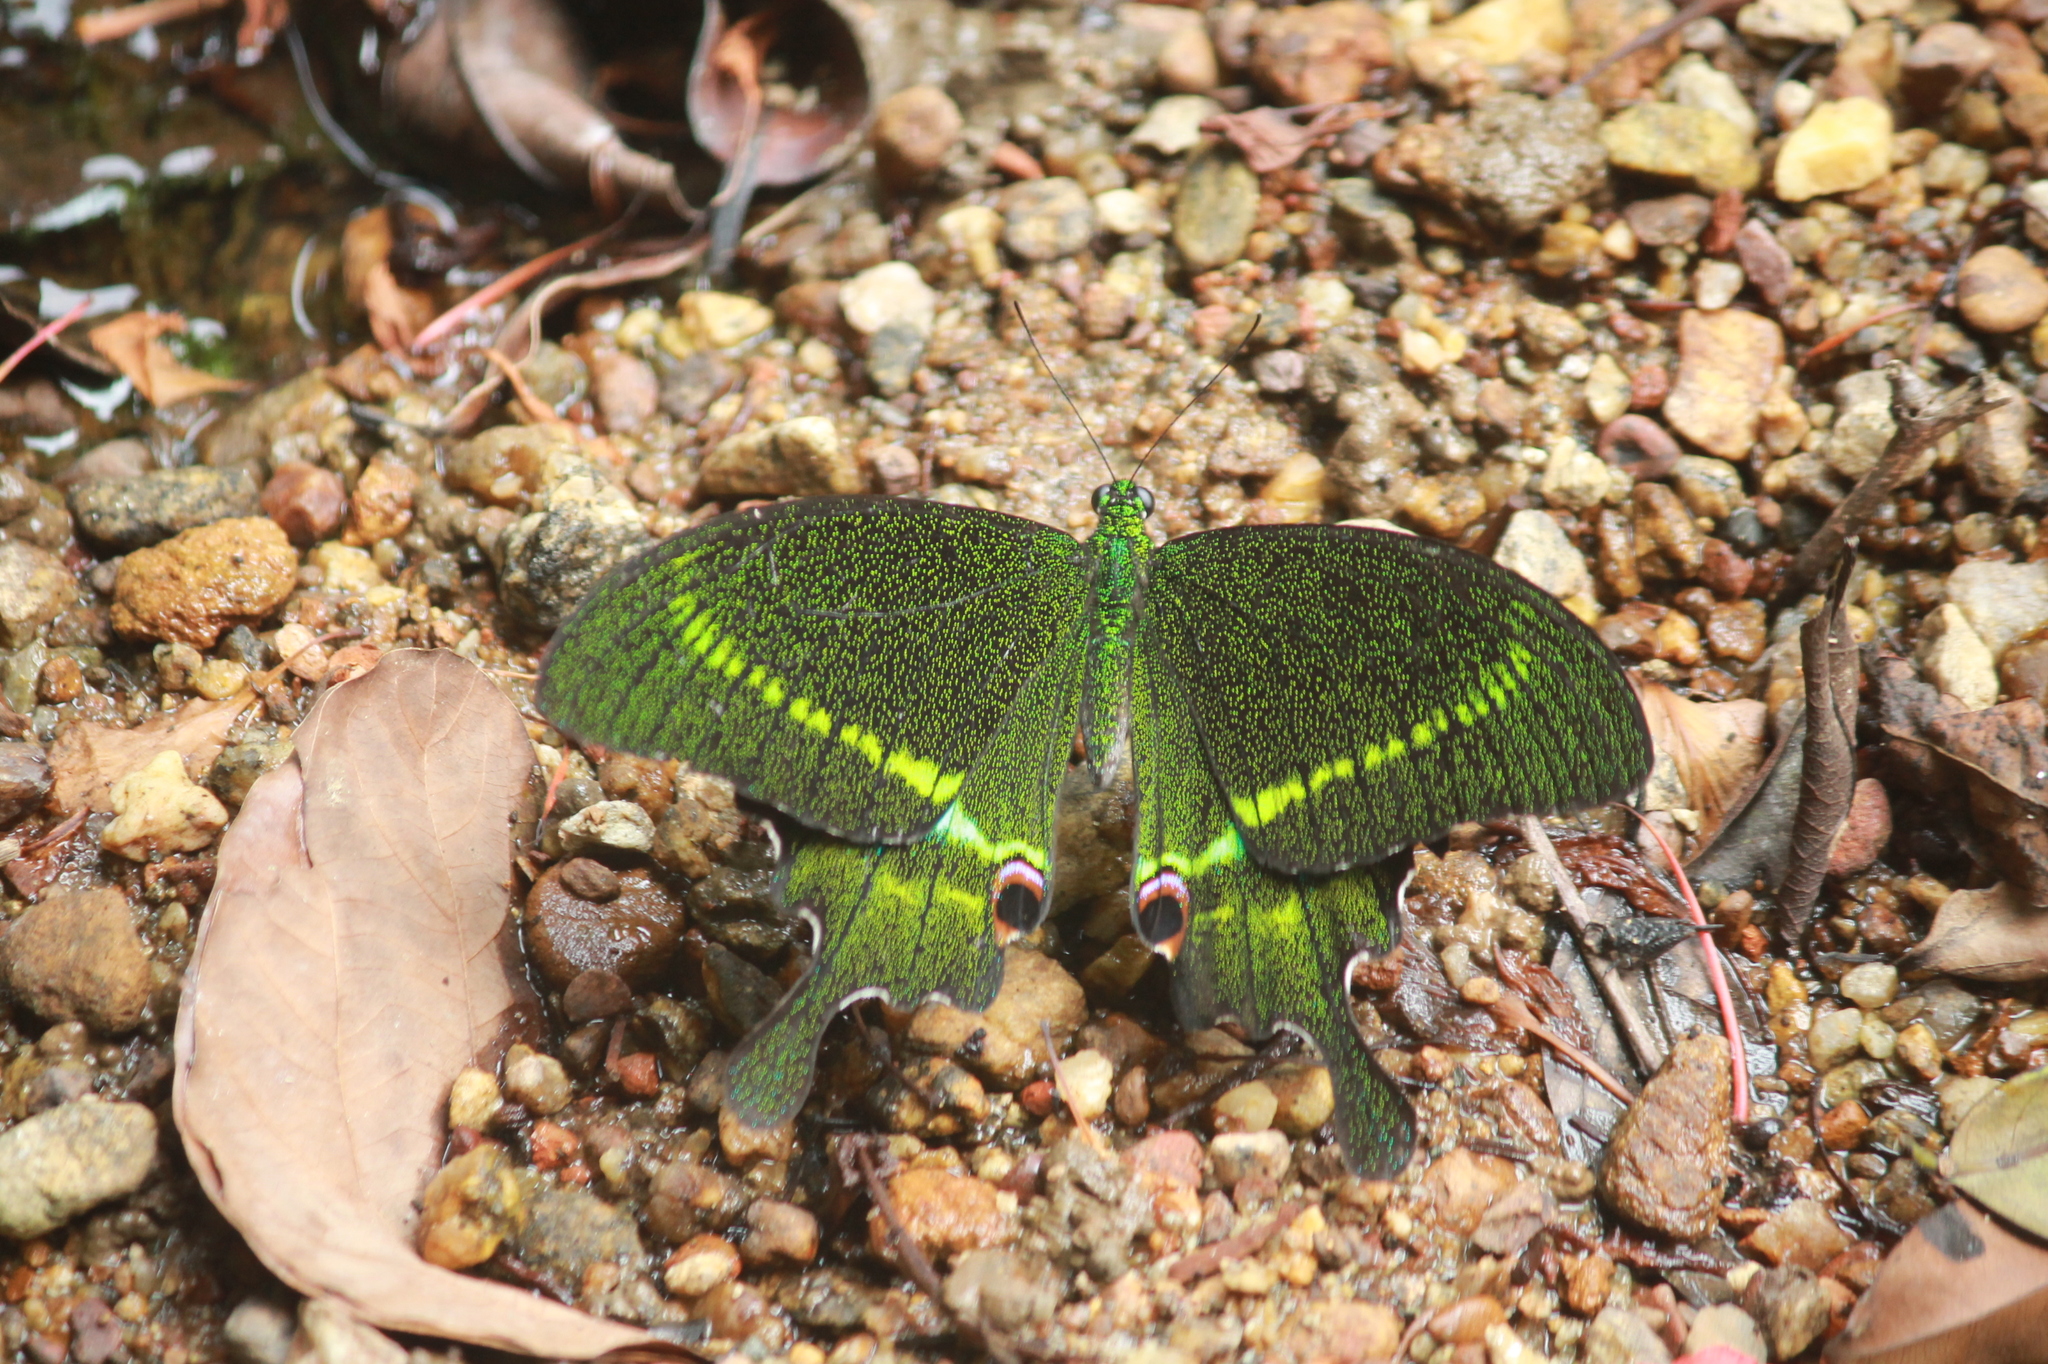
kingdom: Animalia
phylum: Arthropoda
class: Insecta
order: Lepidoptera
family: Papilionidae
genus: Papilio
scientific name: Papilio paris
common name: Paris peacock
